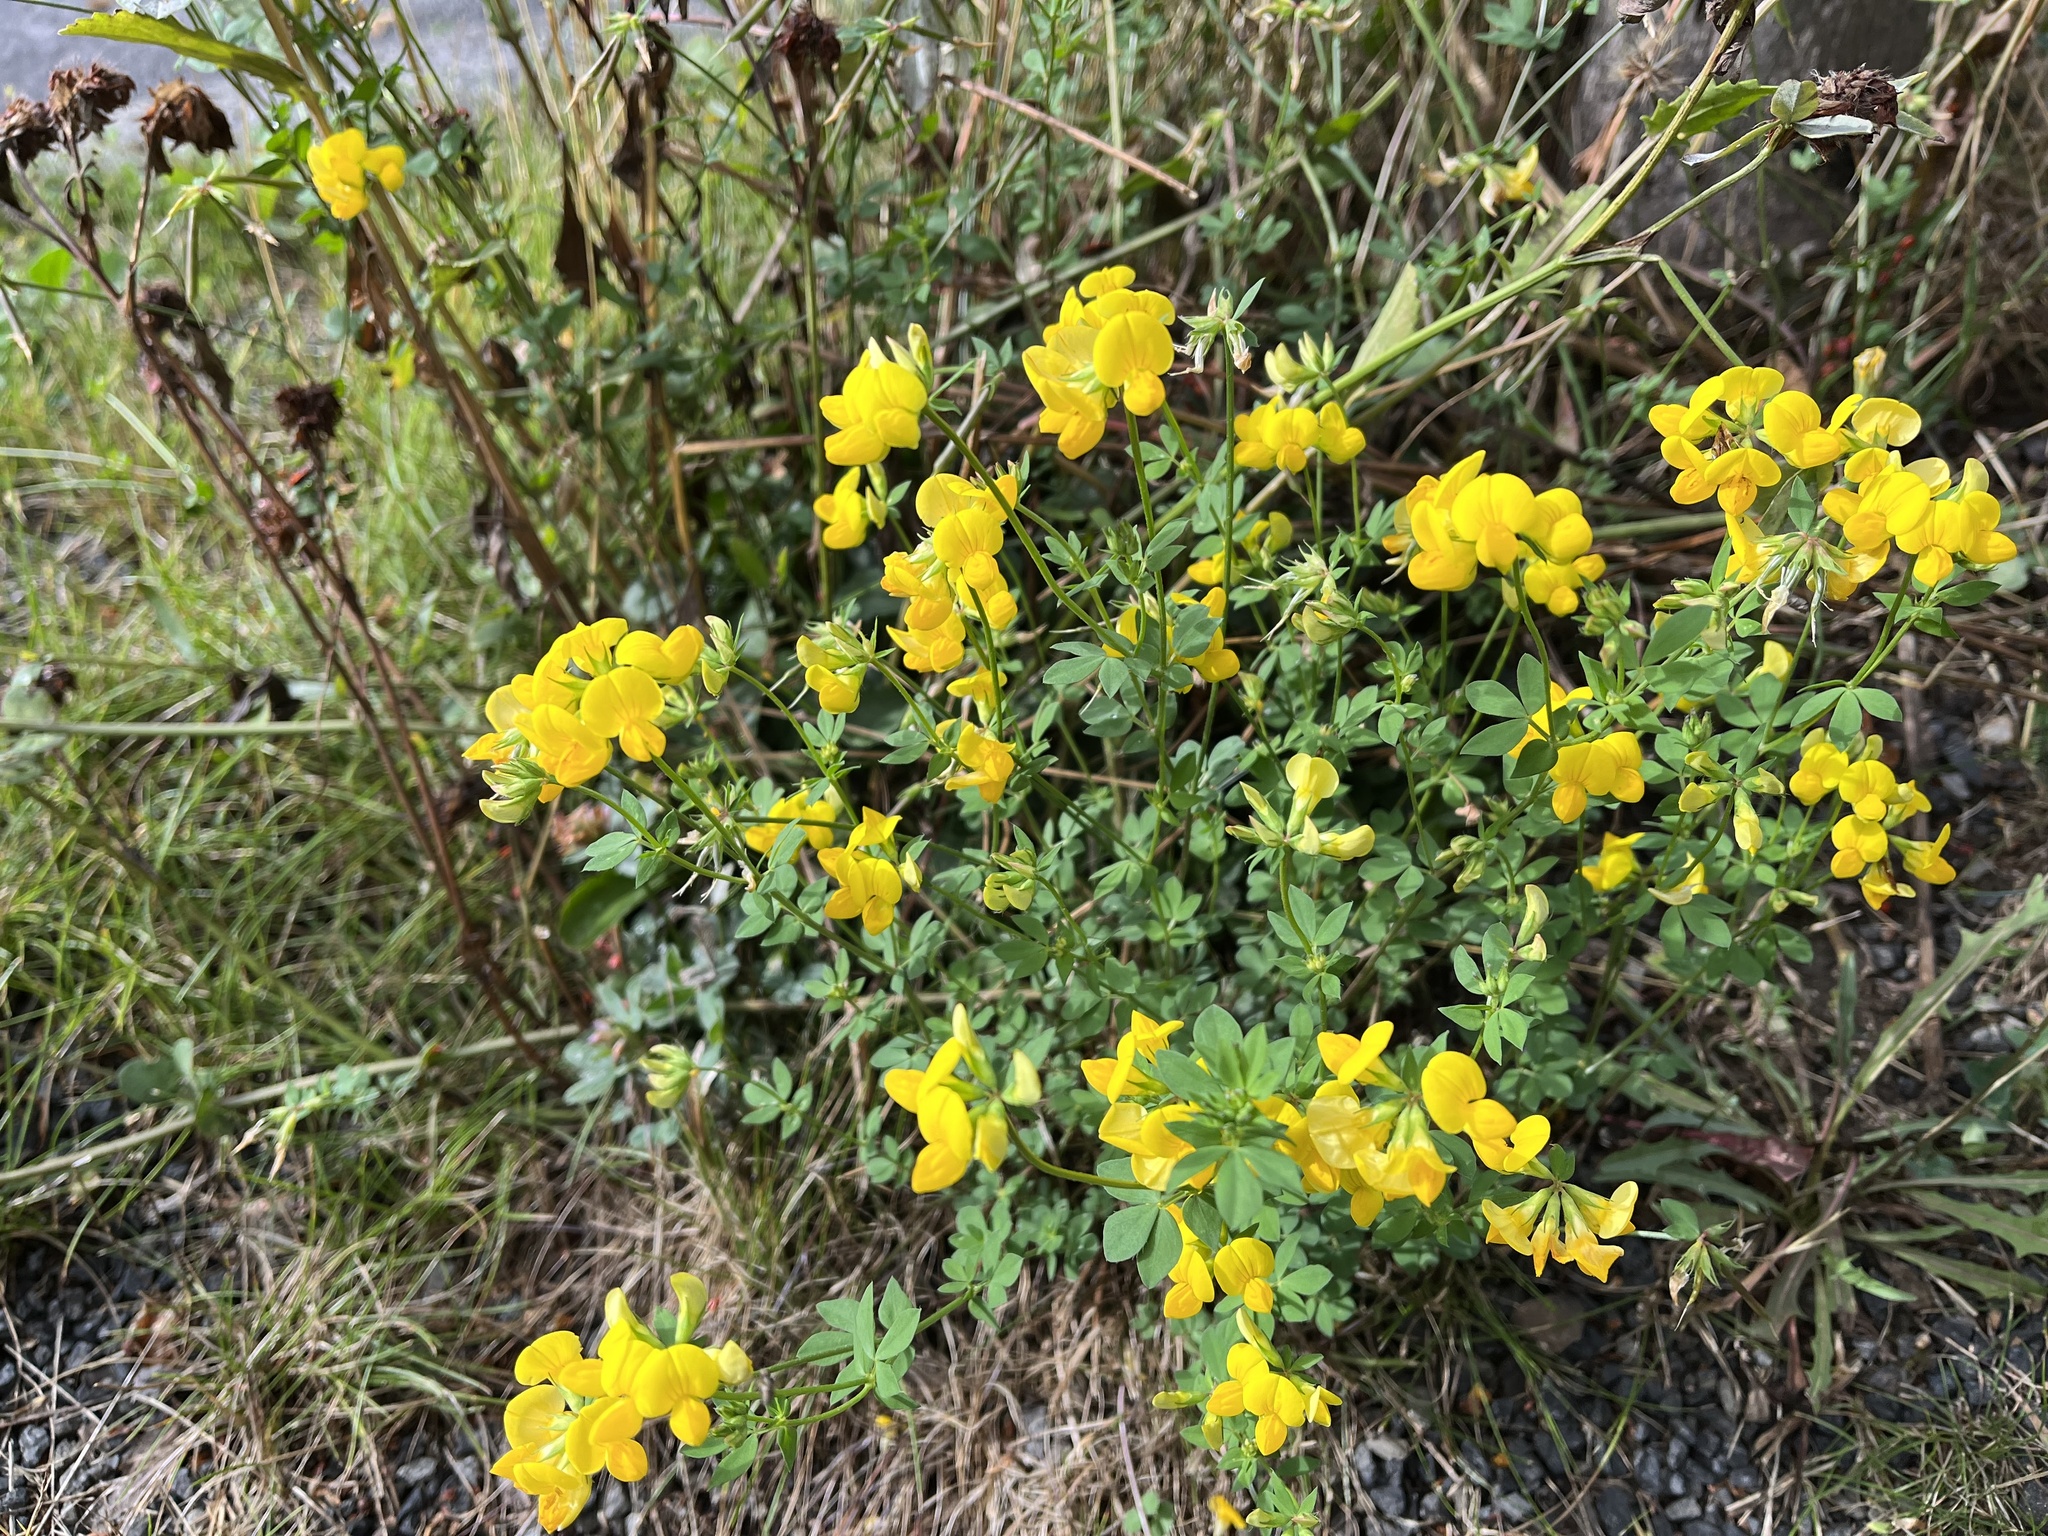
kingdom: Plantae
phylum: Tracheophyta
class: Magnoliopsida
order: Fabales
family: Fabaceae
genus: Lotus
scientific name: Lotus corniculatus
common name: Common bird's-foot-trefoil
